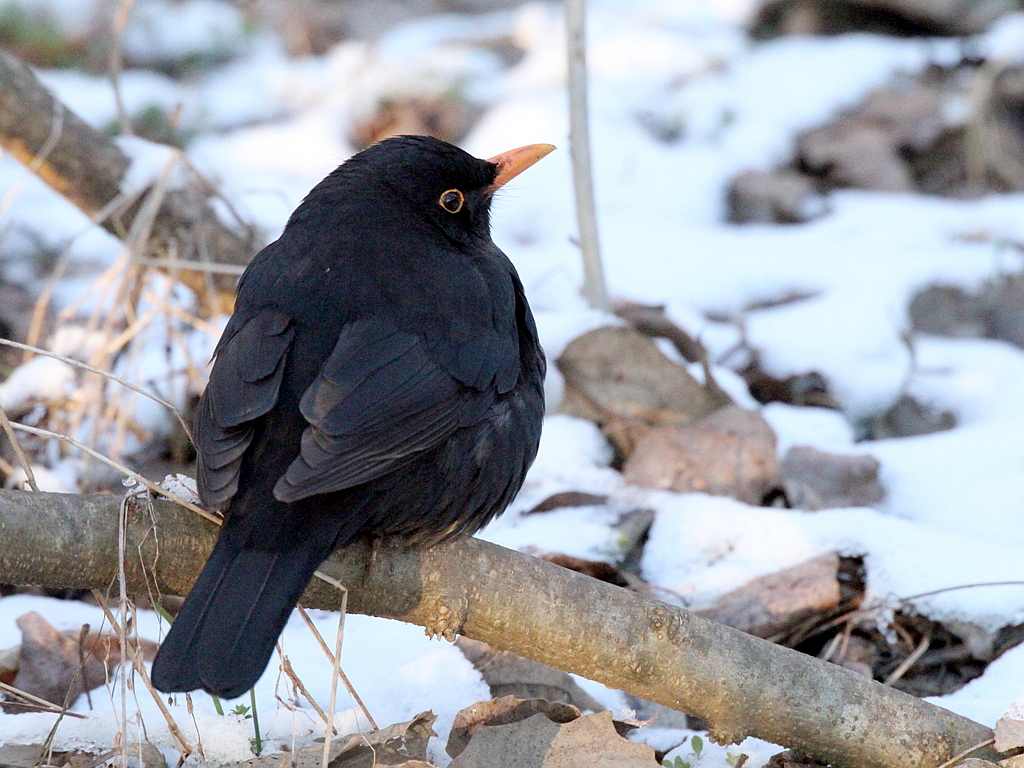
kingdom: Animalia
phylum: Chordata
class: Aves
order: Passeriformes
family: Turdidae
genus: Turdus
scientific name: Turdus merula
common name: Common blackbird
